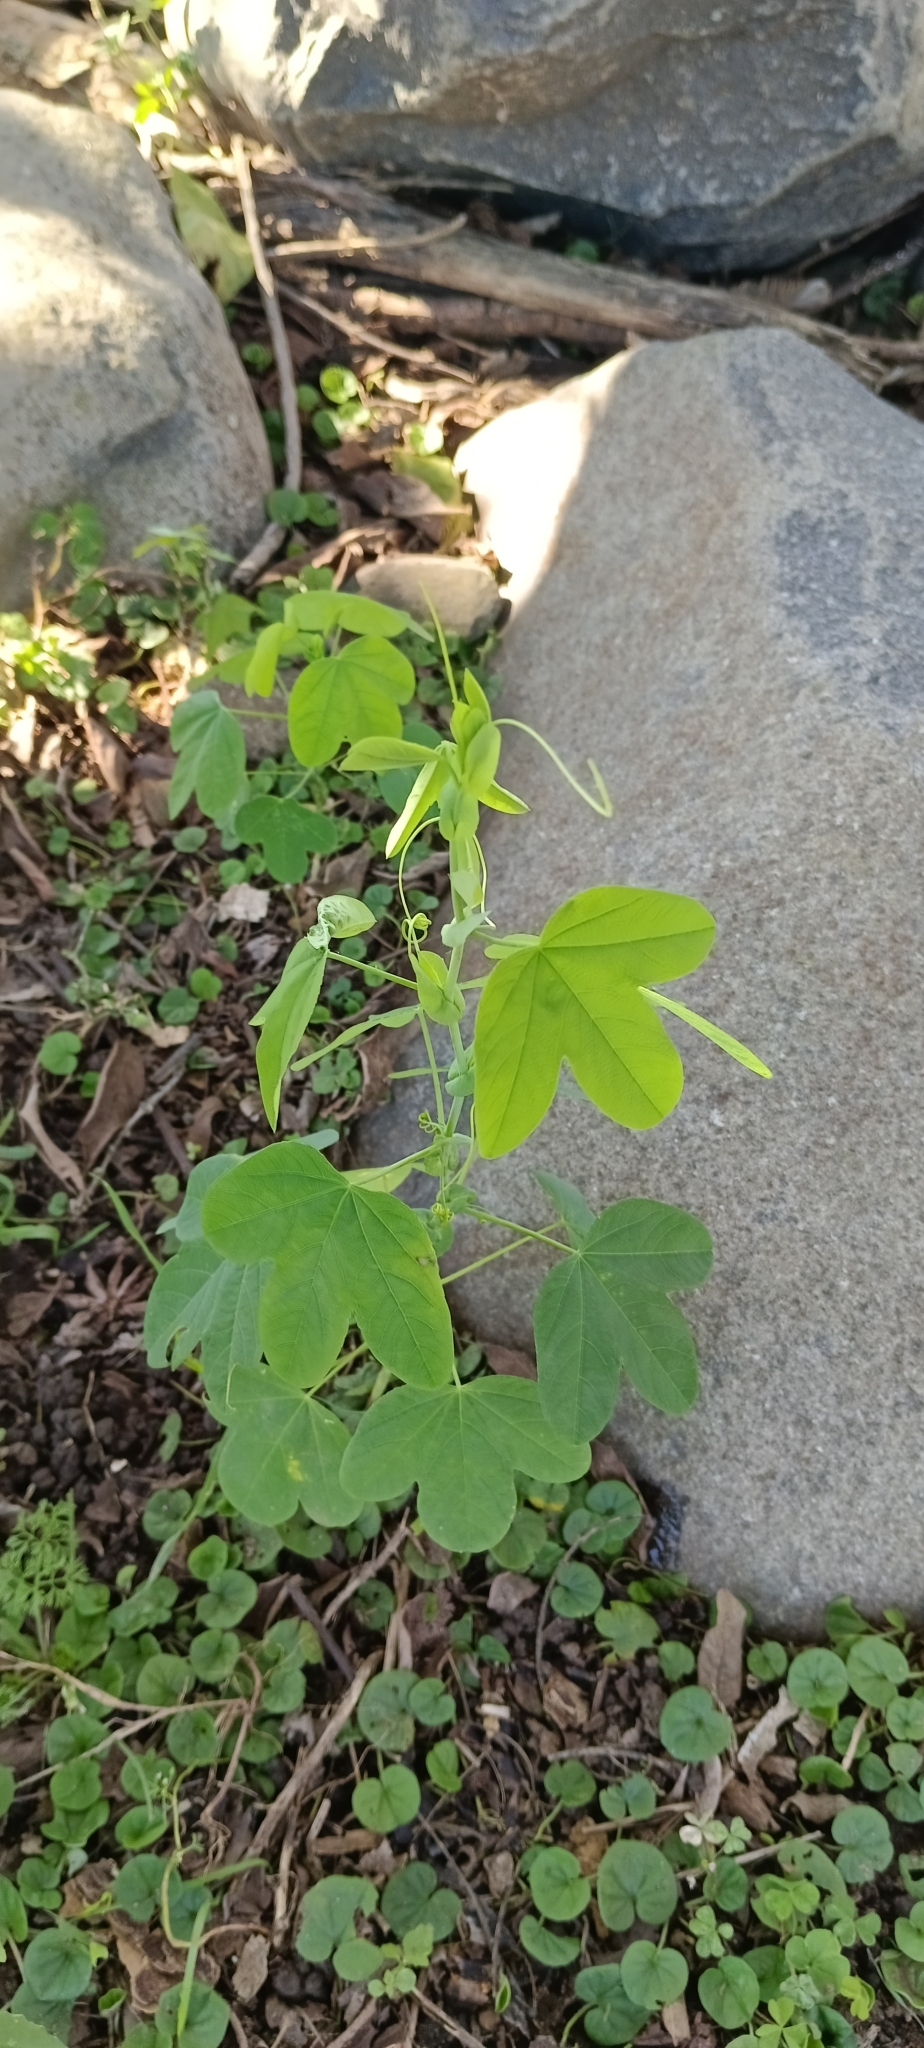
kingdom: Plantae
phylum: Tracheophyta
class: Magnoliopsida
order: Malpighiales
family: Passifloraceae
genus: Passiflora
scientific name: Passiflora subpeltata
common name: White passionflower
